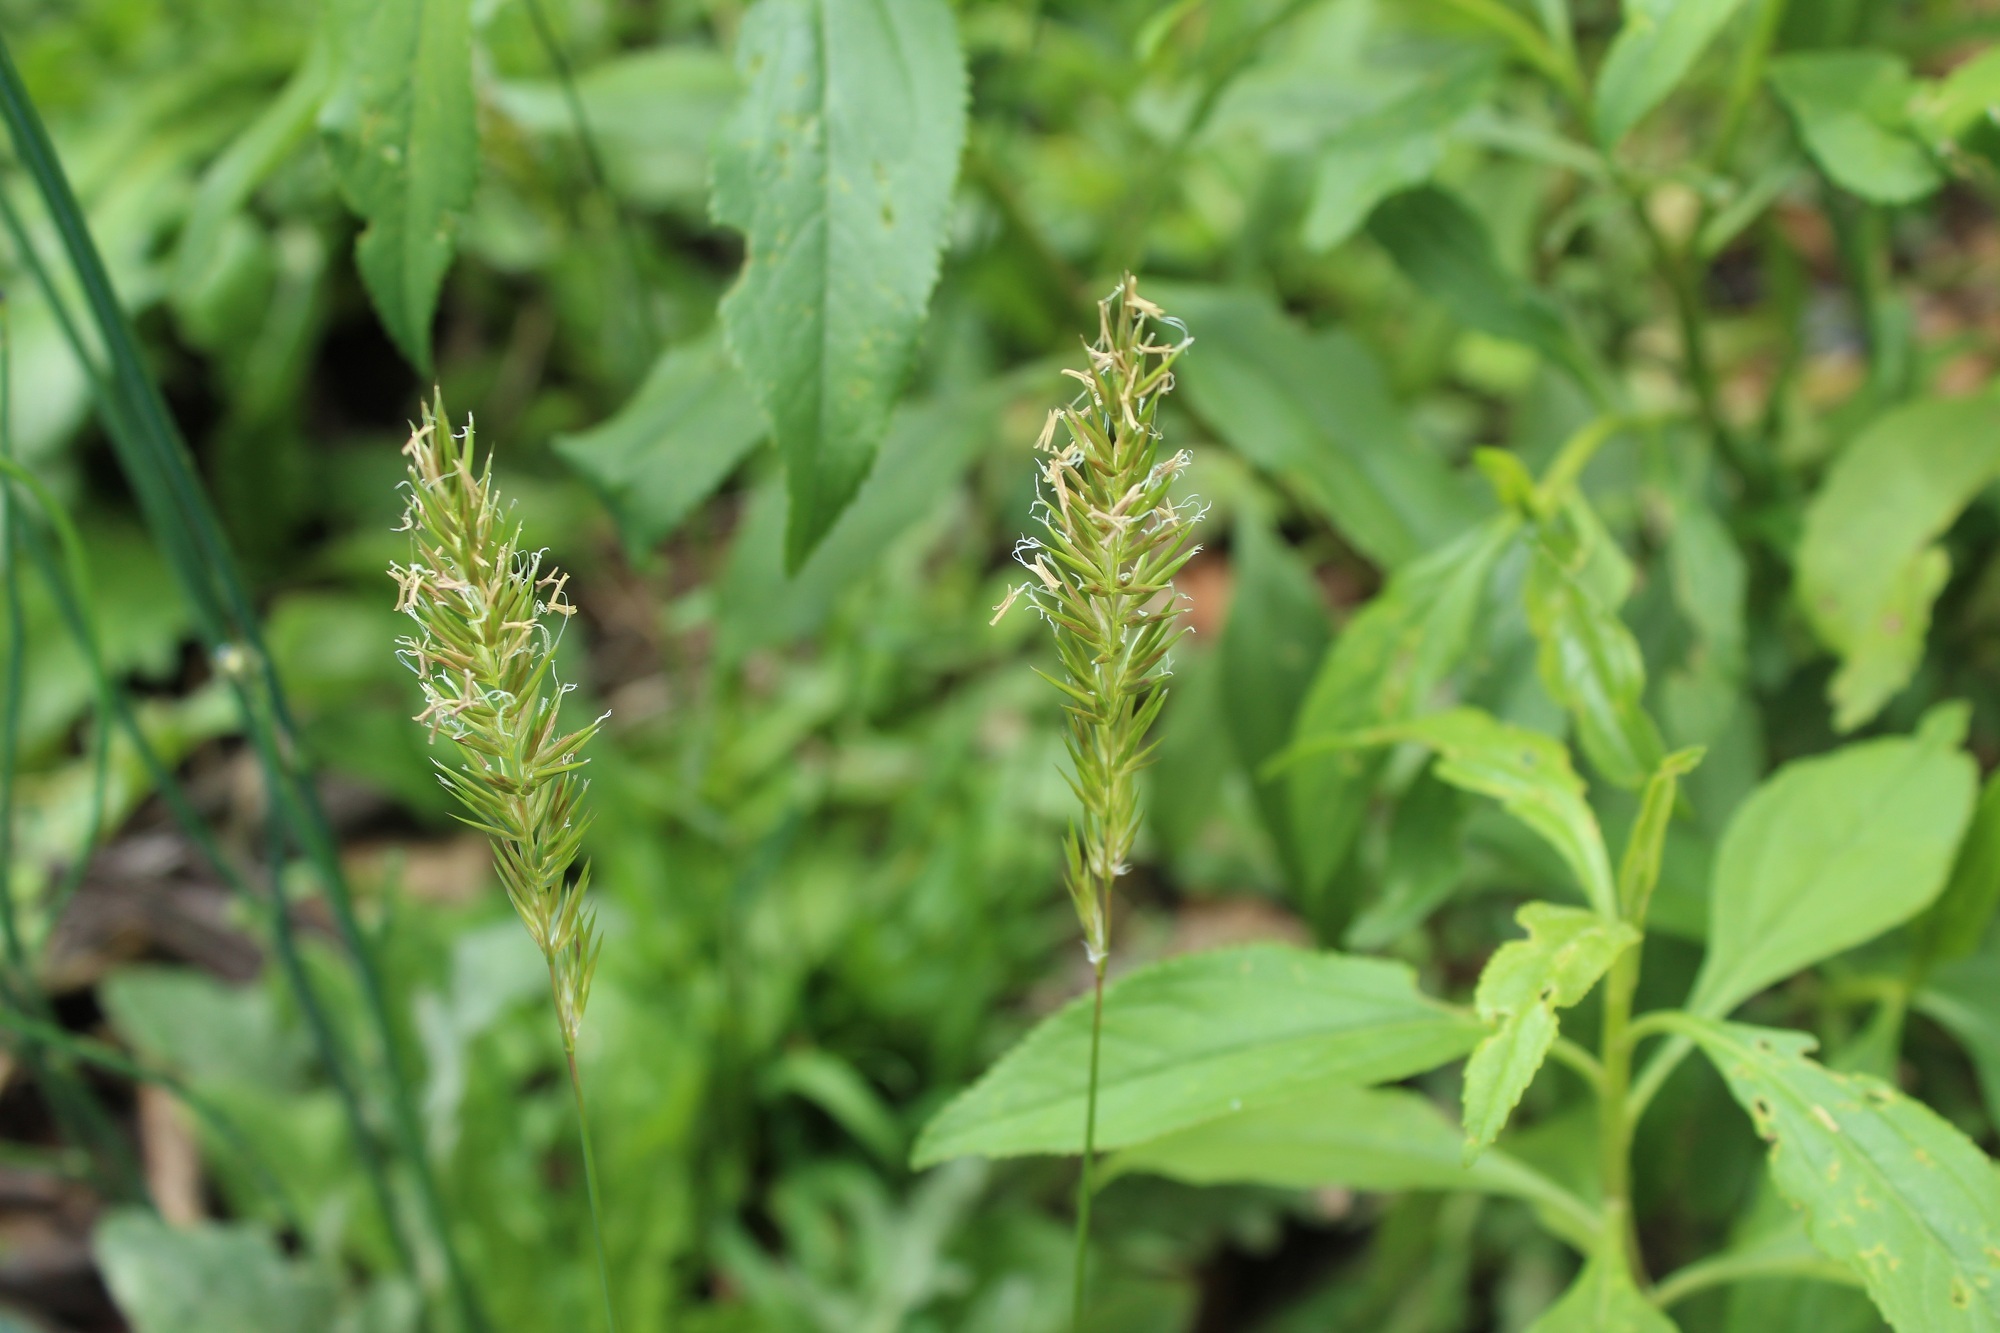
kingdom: Plantae
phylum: Tracheophyta
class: Liliopsida
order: Poales
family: Poaceae
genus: Anthoxanthum
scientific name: Anthoxanthum odoratum
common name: Sweet vernalgrass
